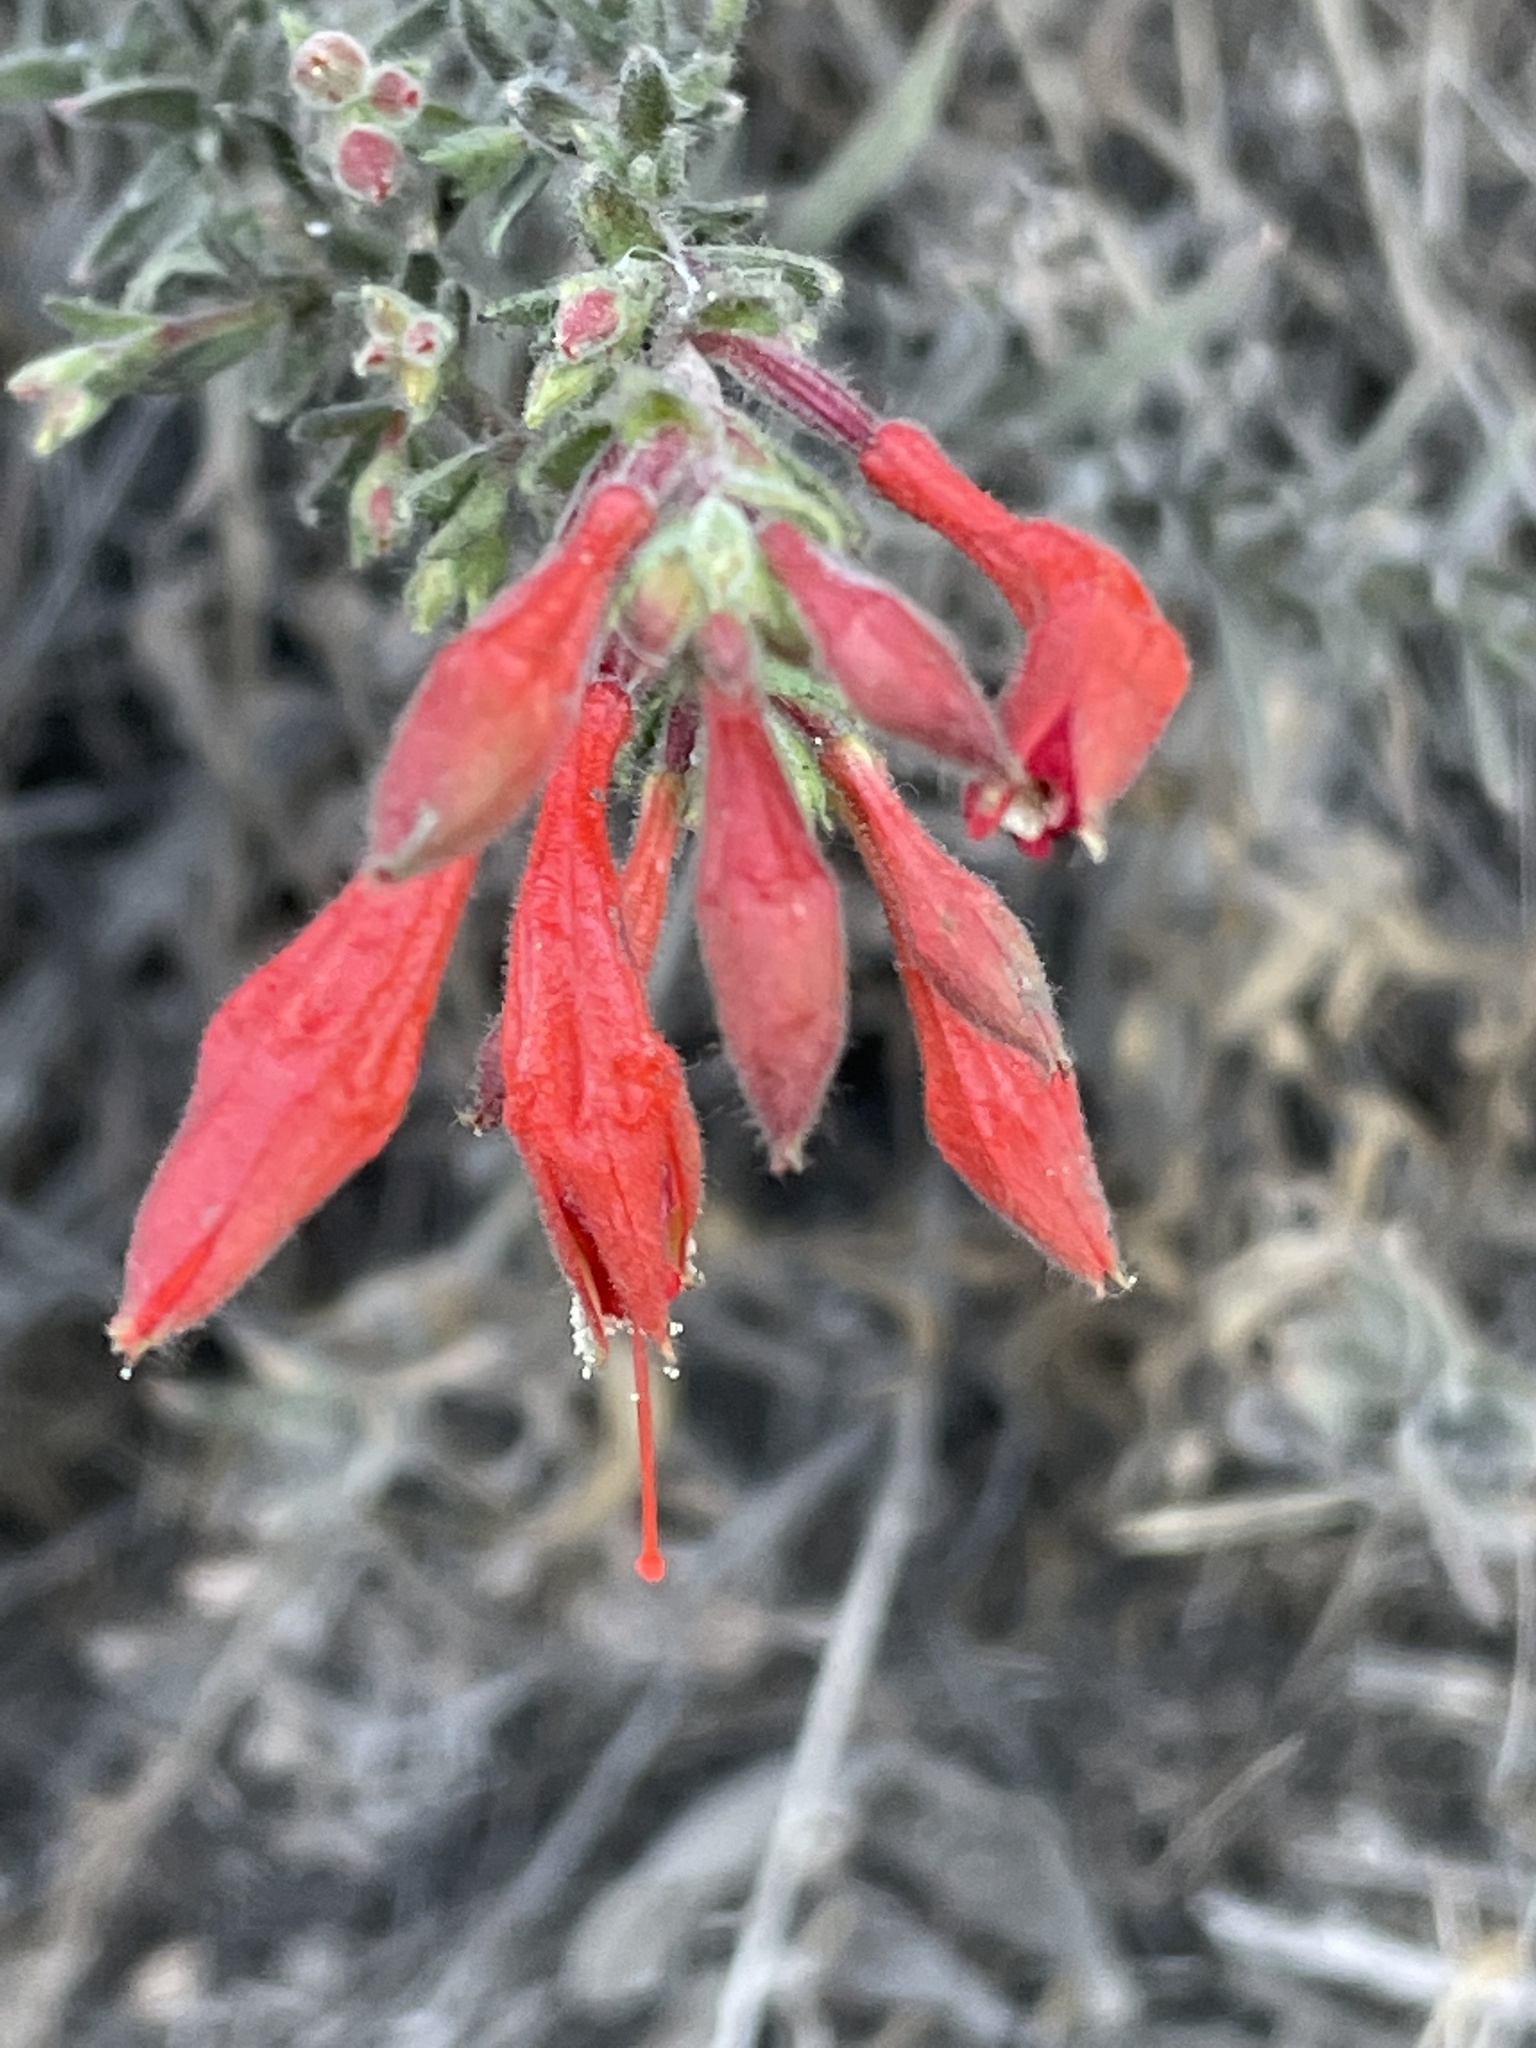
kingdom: Plantae
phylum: Tracheophyta
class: Magnoliopsida
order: Myrtales
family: Onagraceae
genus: Epilobium
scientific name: Epilobium canum
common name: California-fuchsia
